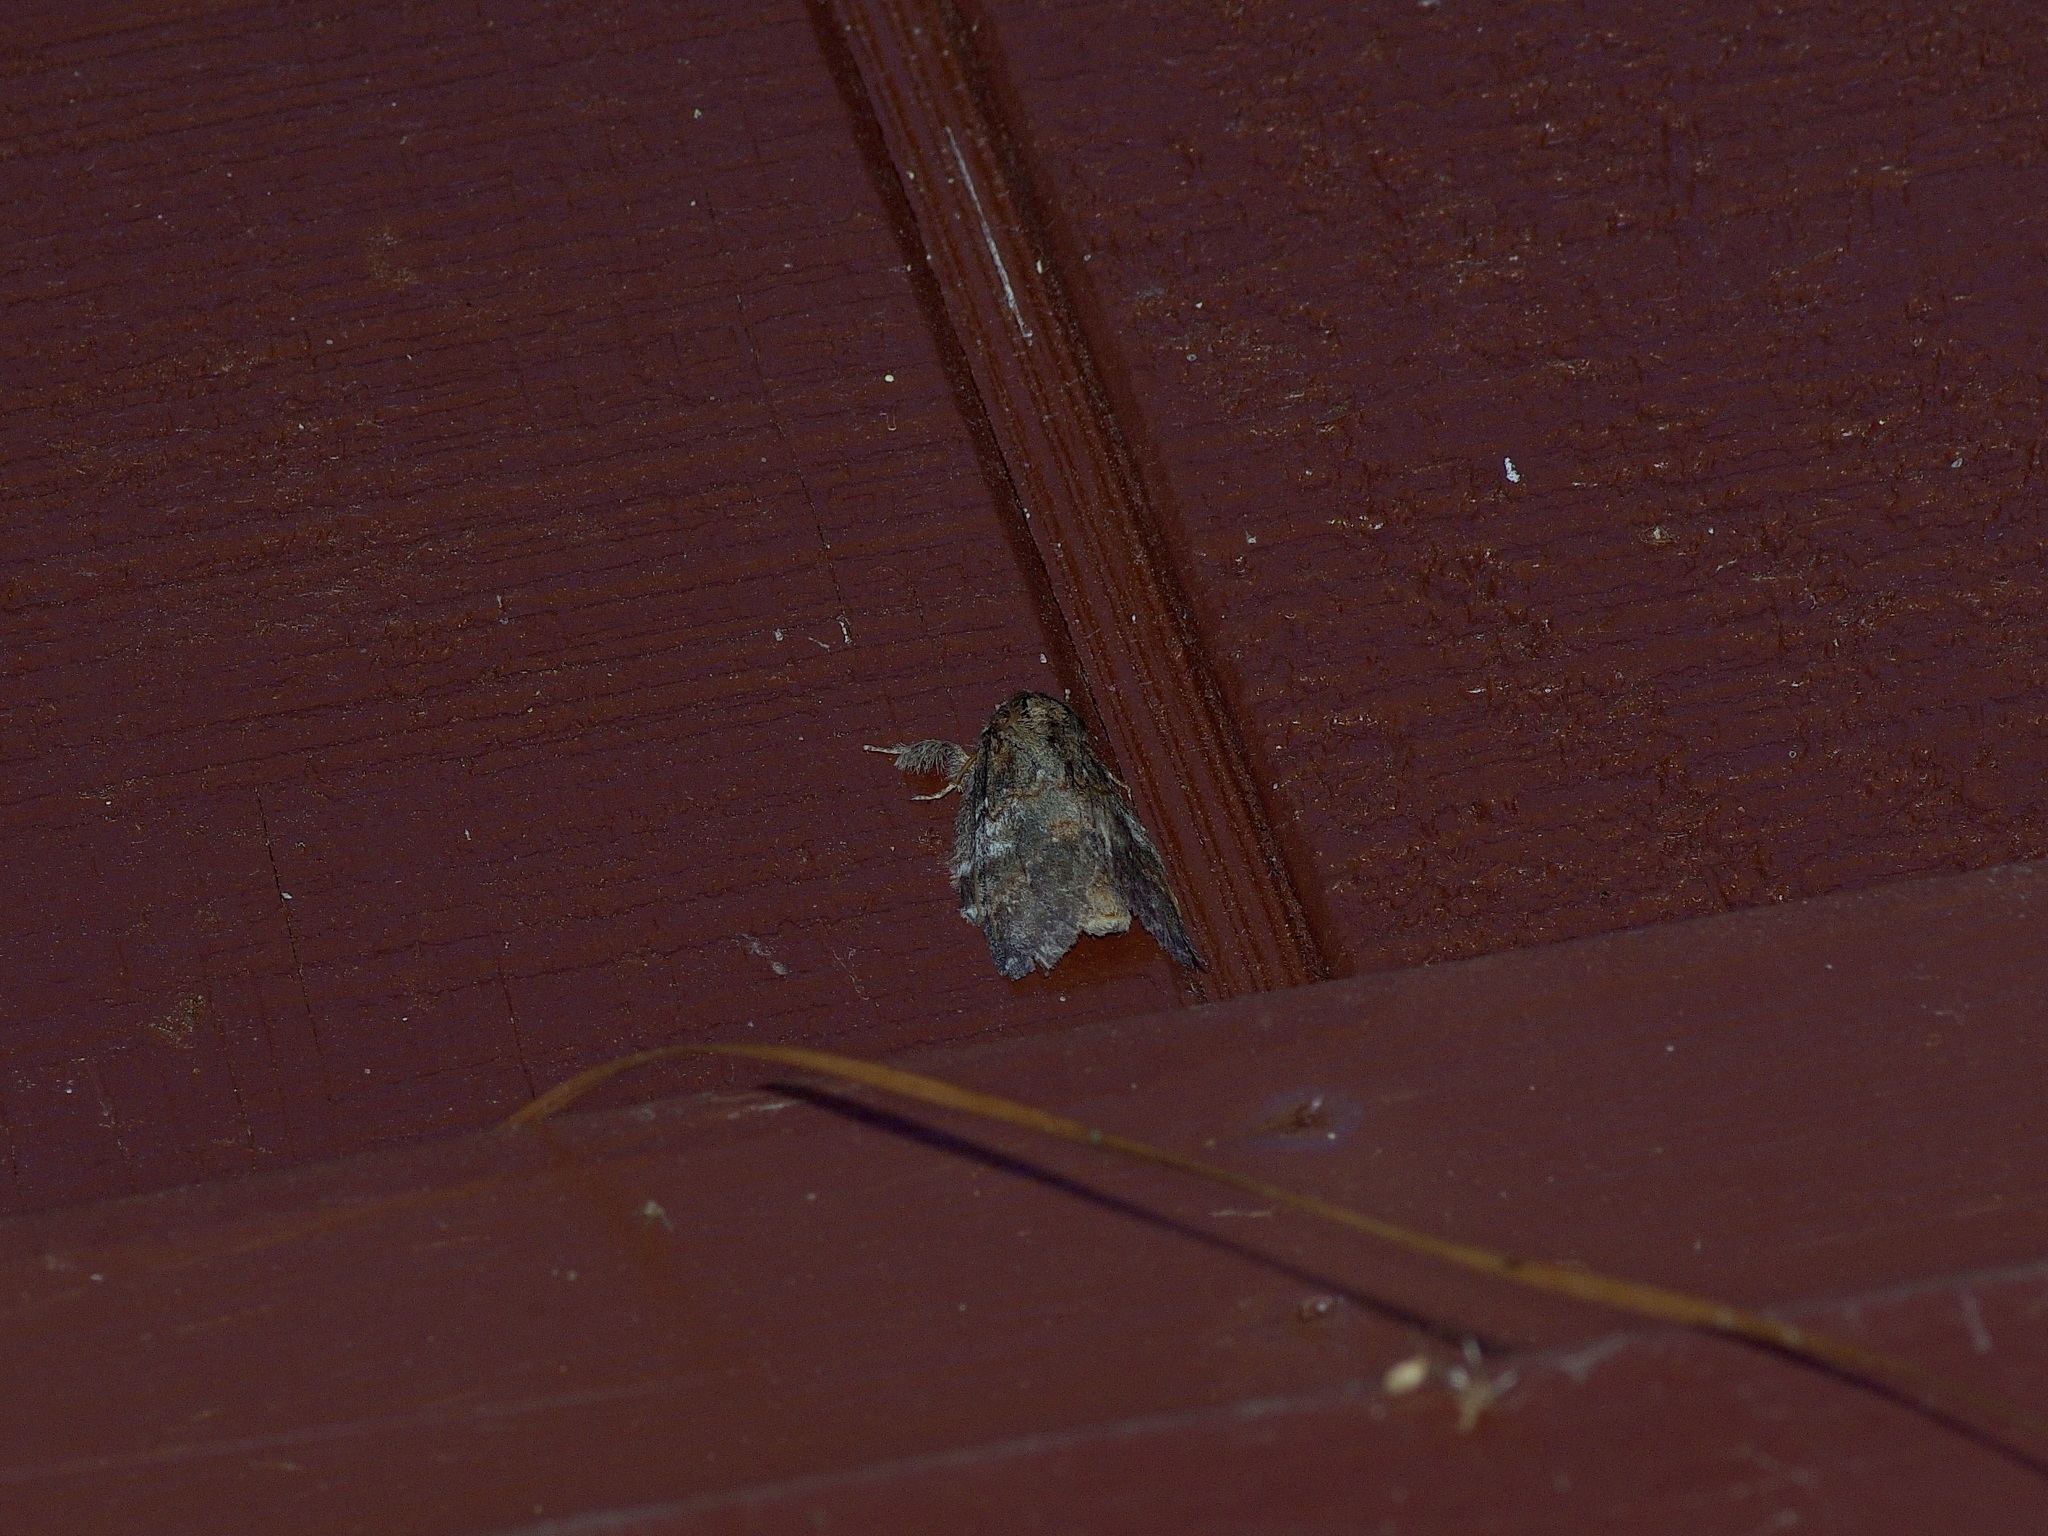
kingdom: Animalia
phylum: Arthropoda
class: Insecta
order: Lepidoptera
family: Notodontidae
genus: Peridea
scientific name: Peridea angulosa
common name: Angulose prominent
